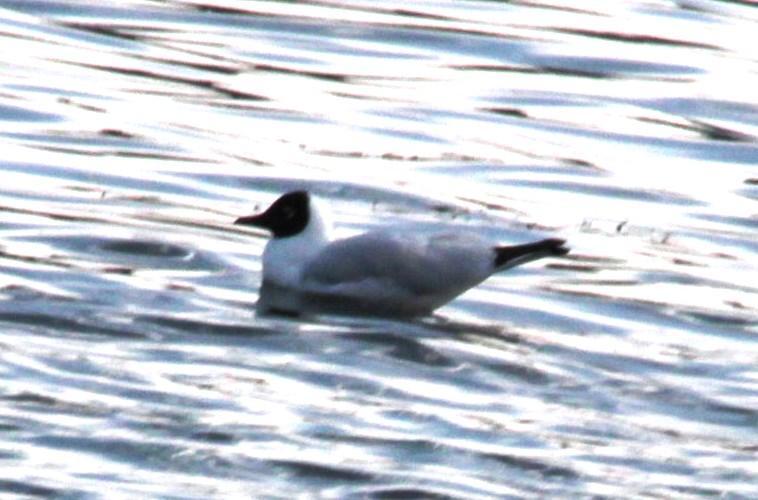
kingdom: Animalia
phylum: Chordata
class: Aves
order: Charadriiformes
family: Laridae
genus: Chroicocephalus
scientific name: Chroicocephalus serranus
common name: Andean gull
